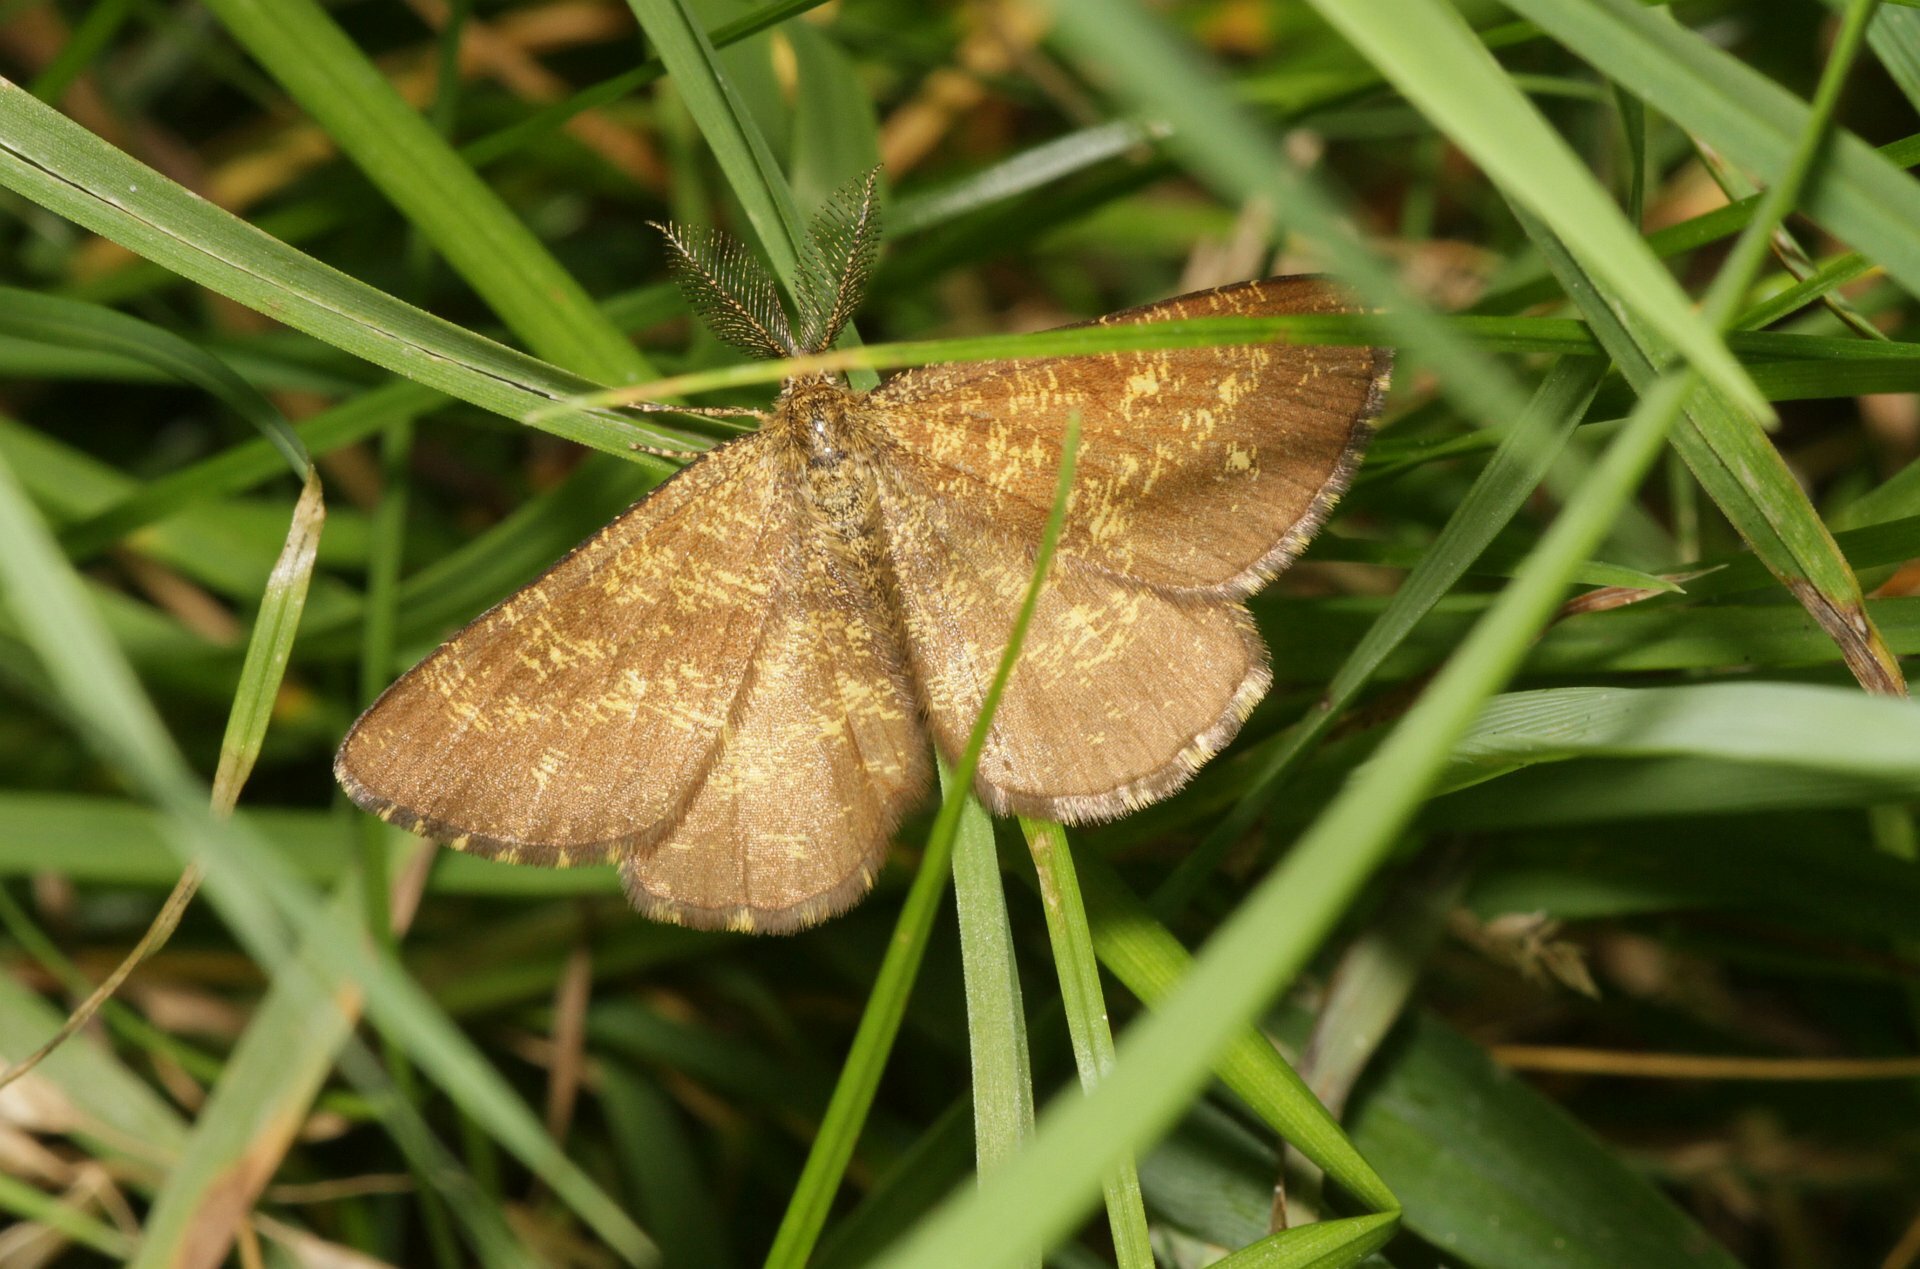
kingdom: Animalia
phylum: Arthropoda
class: Insecta
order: Lepidoptera
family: Geometridae
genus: Ematurga
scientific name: Ematurga atomaria
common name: Common heath
